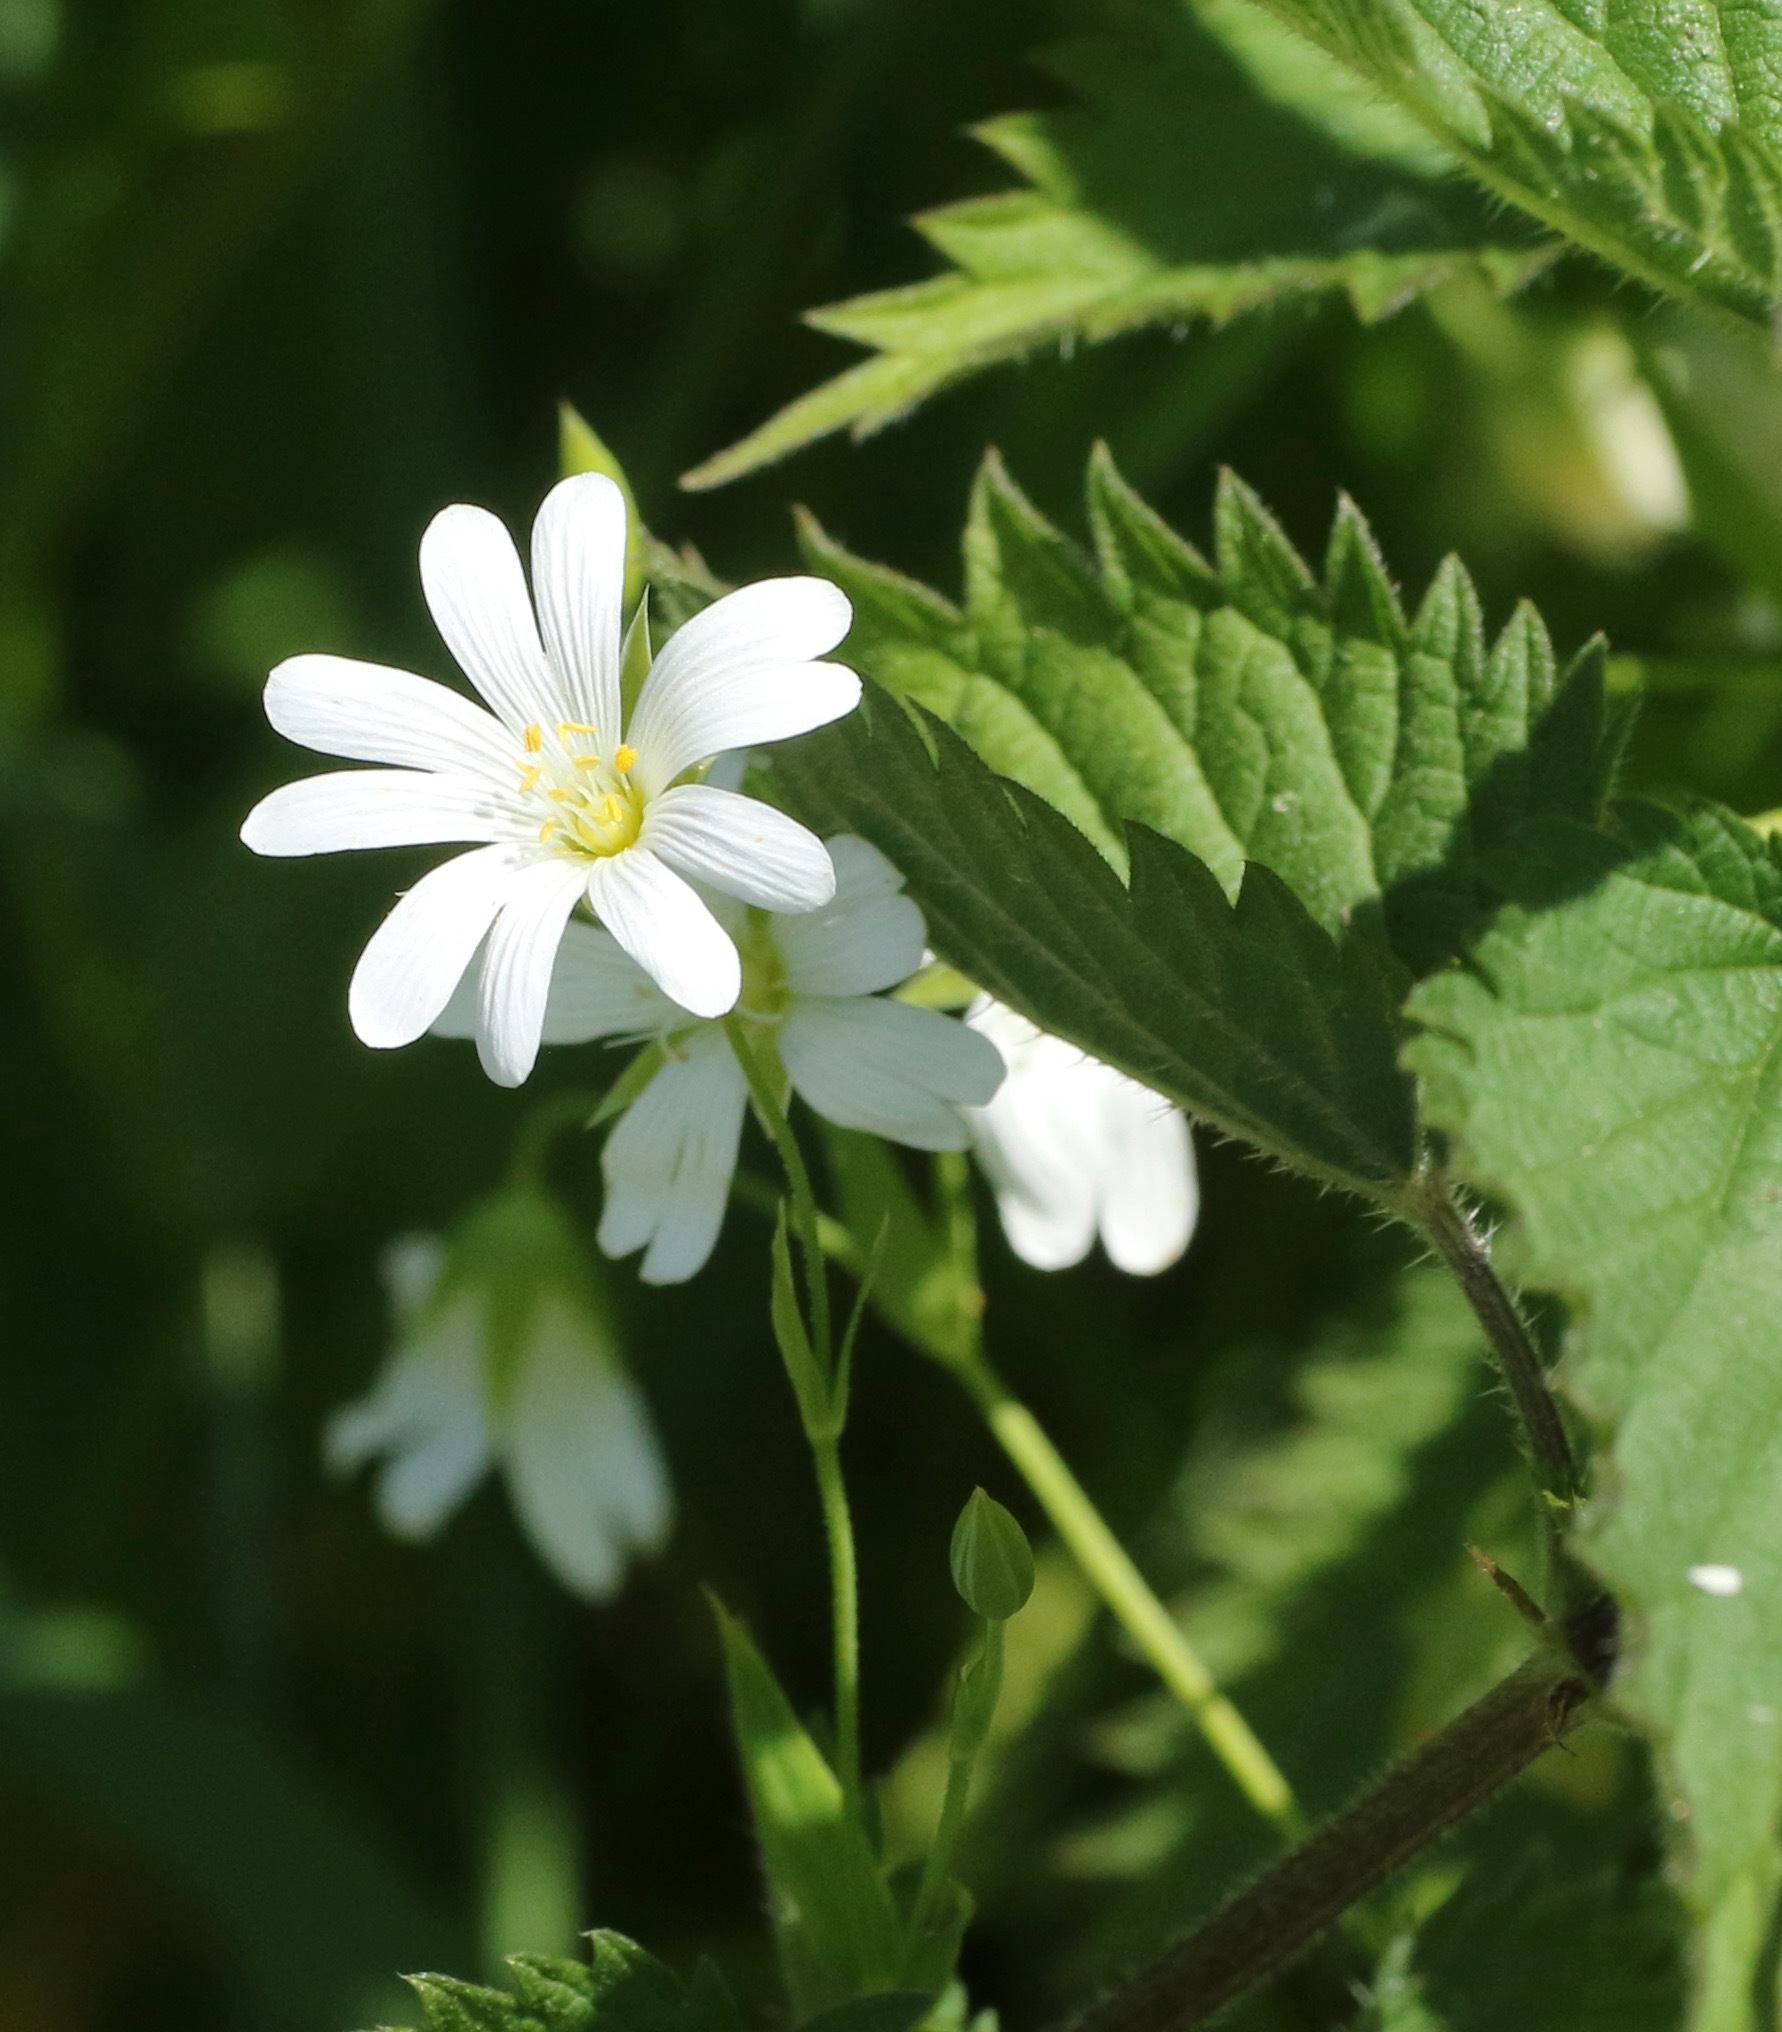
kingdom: Plantae
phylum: Tracheophyta
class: Magnoliopsida
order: Caryophyllales
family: Caryophyllaceae
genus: Rabelera
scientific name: Rabelera holostea
